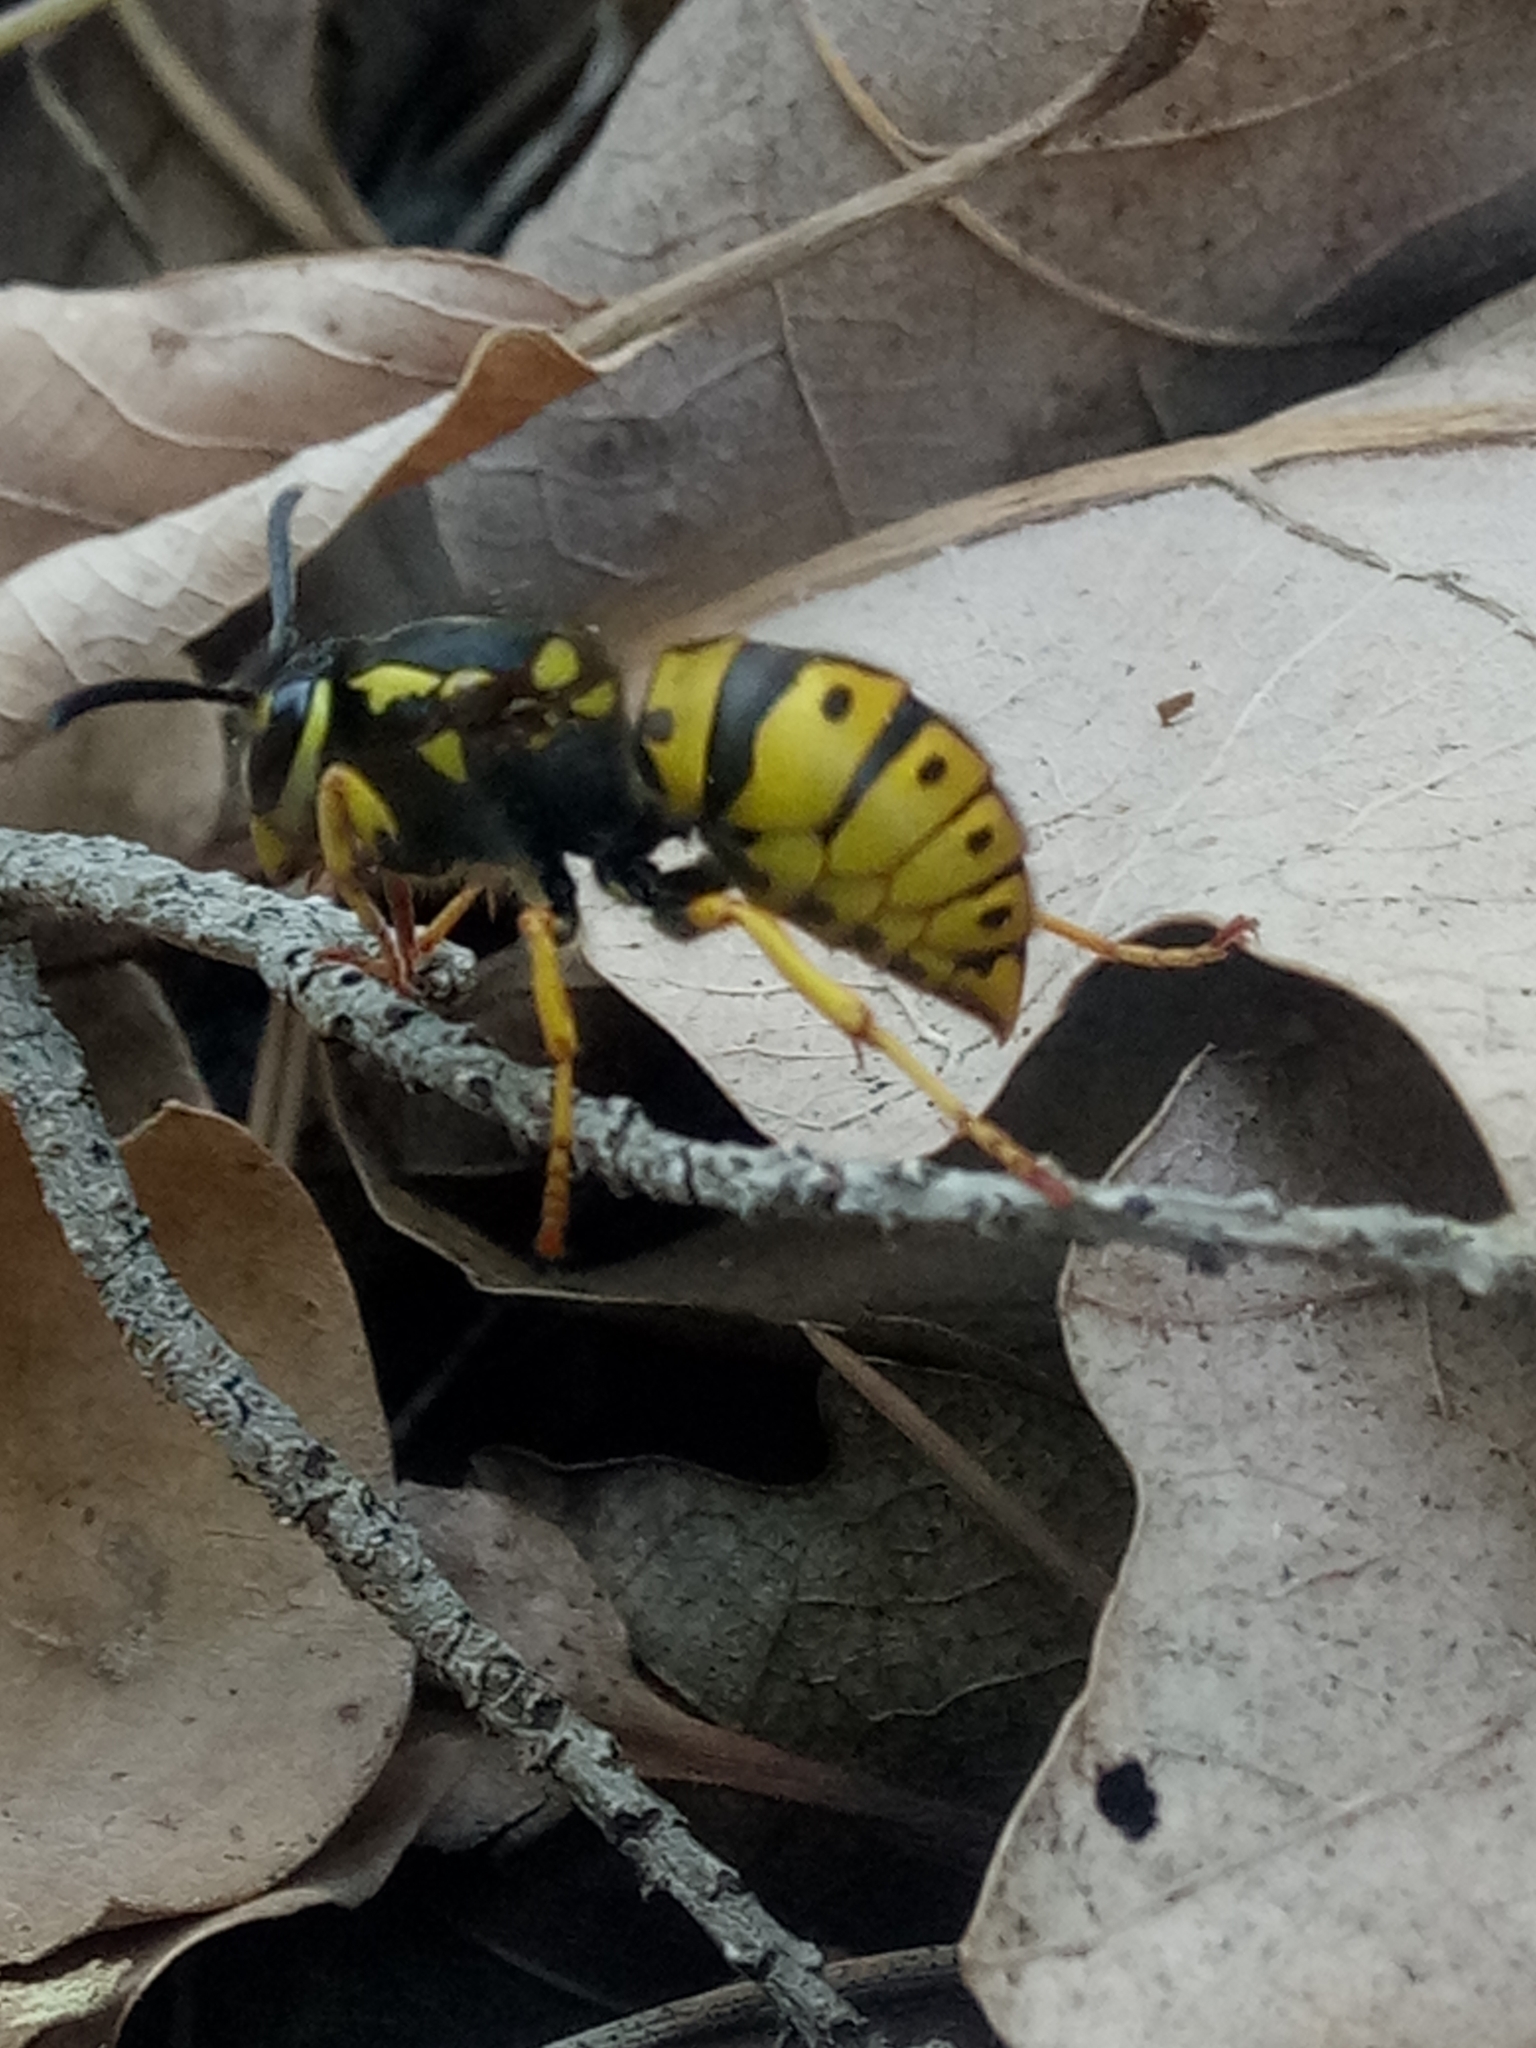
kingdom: Animalia
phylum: Arthropoda
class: Insecta
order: Hymenoptera
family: Vespidae
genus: Vespula
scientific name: Vespula germanica
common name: German wasp
